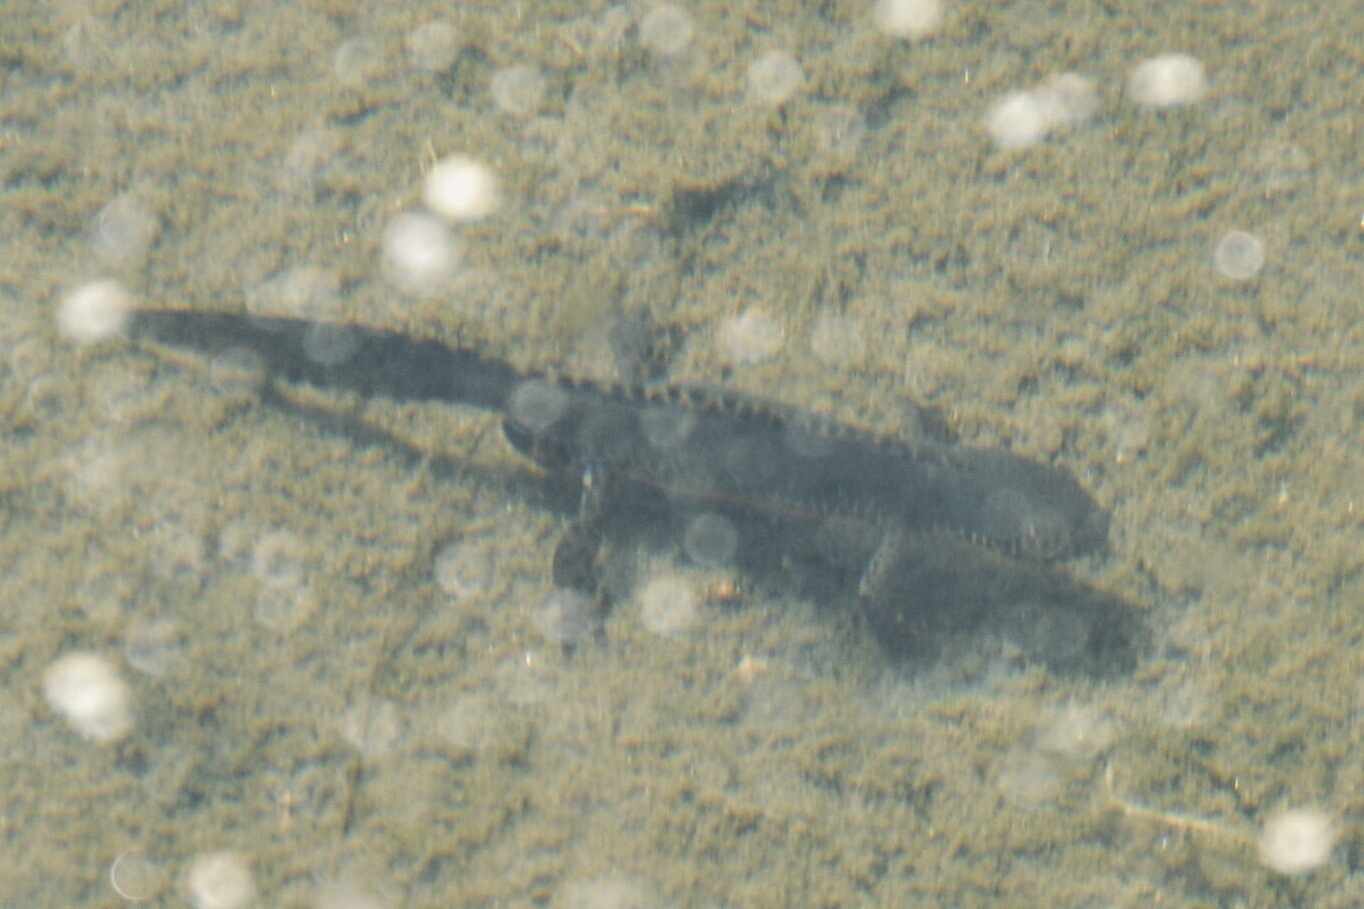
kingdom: Animalia
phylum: Chordata
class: Amphibia
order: Caudata
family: Salamandridae
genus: Ichthyosaura
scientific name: Ichthyosaura alpestris
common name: Alpine newt
